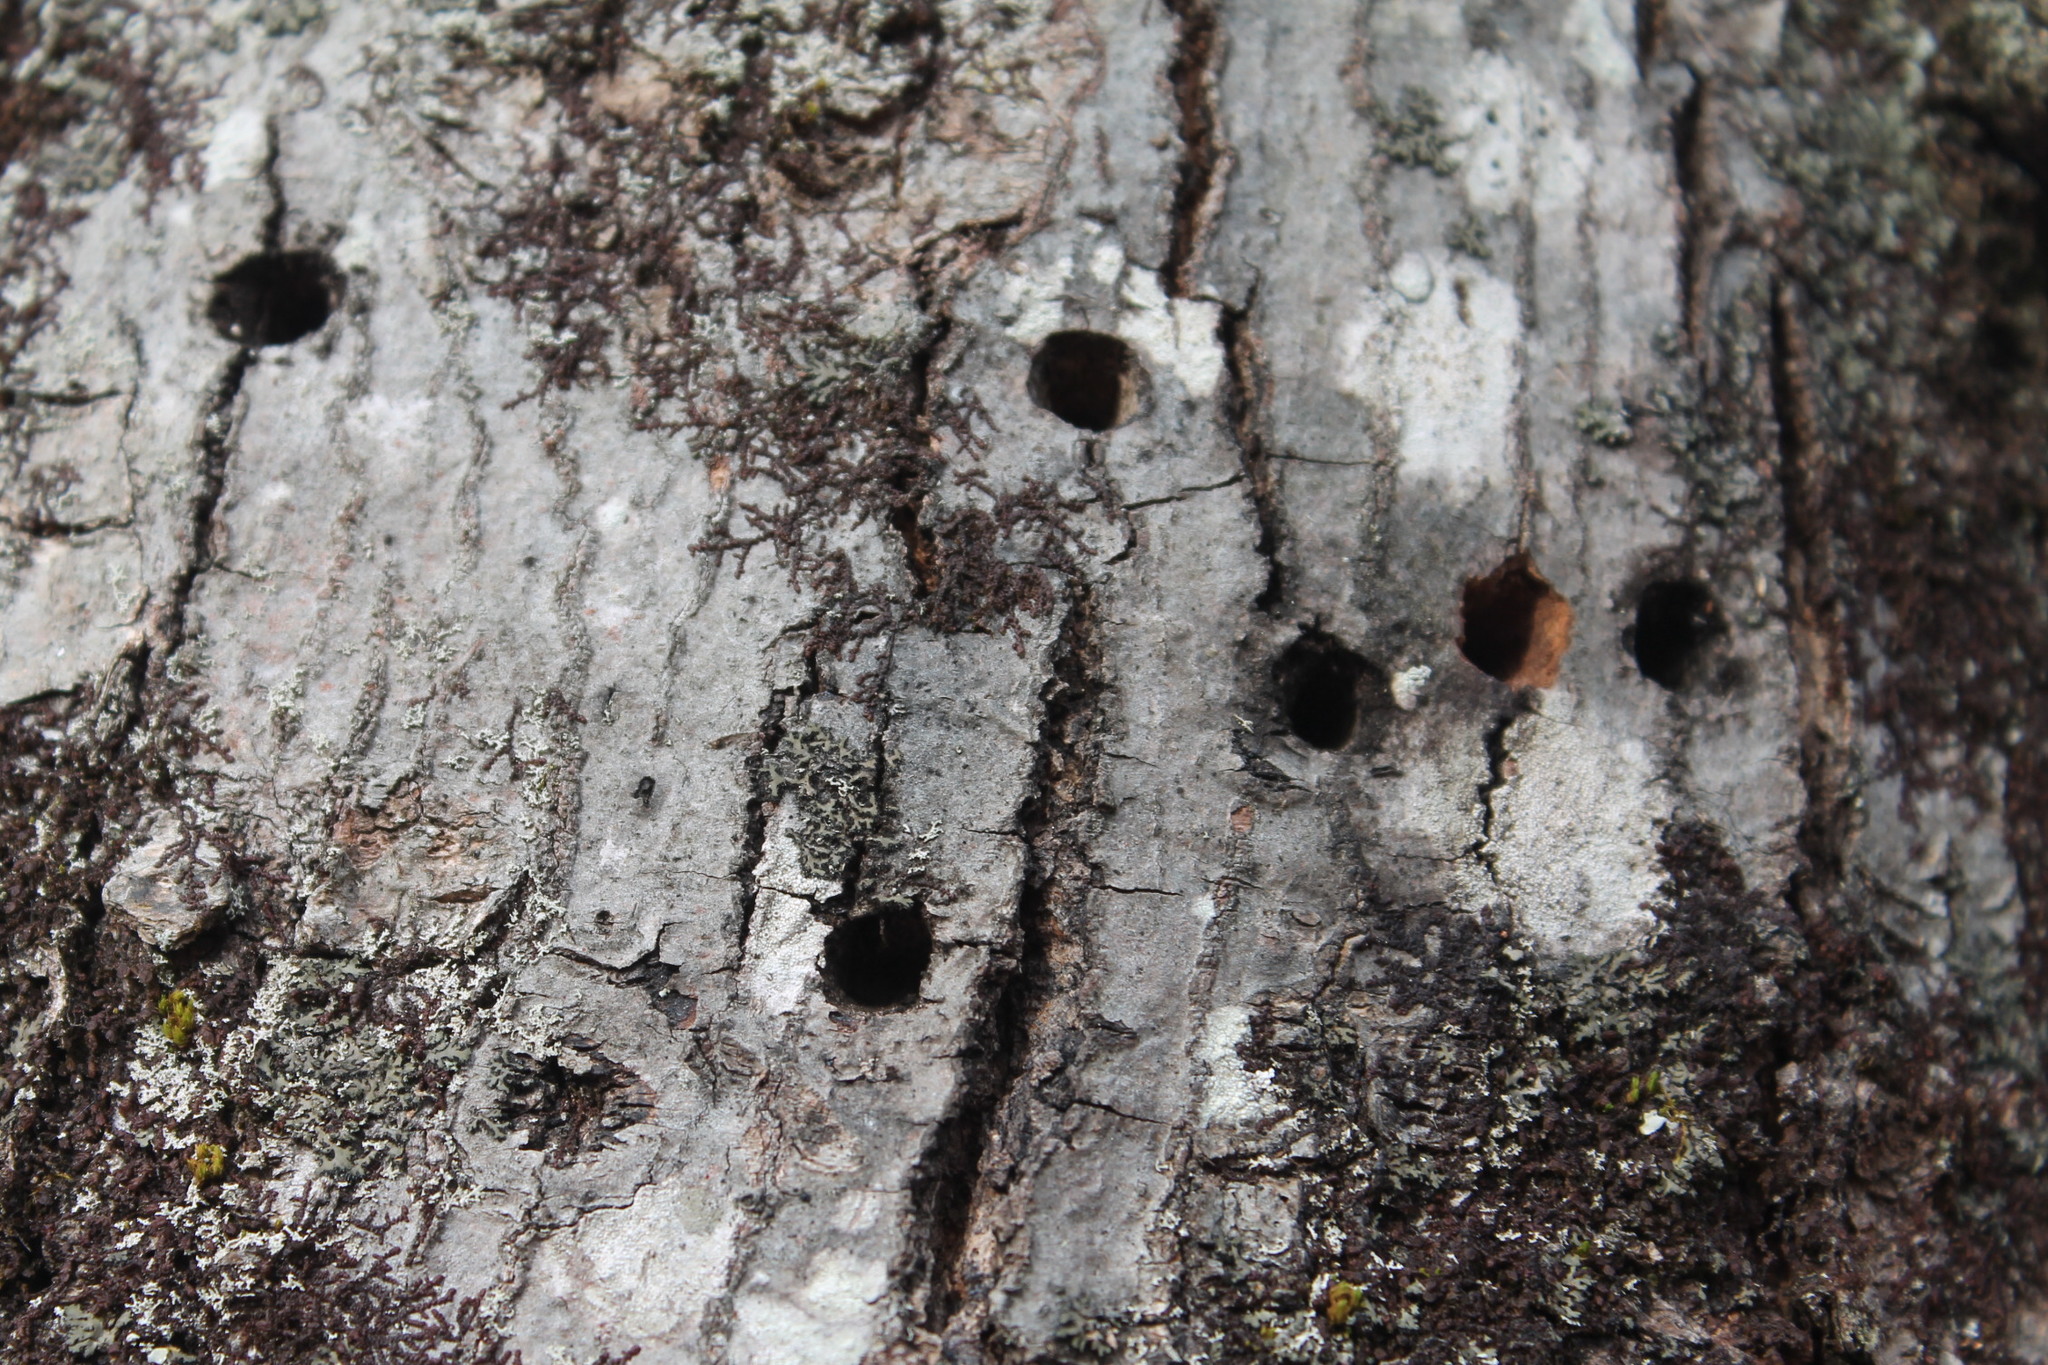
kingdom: Animalia
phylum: Chordata
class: Aves
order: Piciformes
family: Picidae
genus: Sphyrapicus
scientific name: Sphyrapicus varius
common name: Yellow-bellied sapsucker
